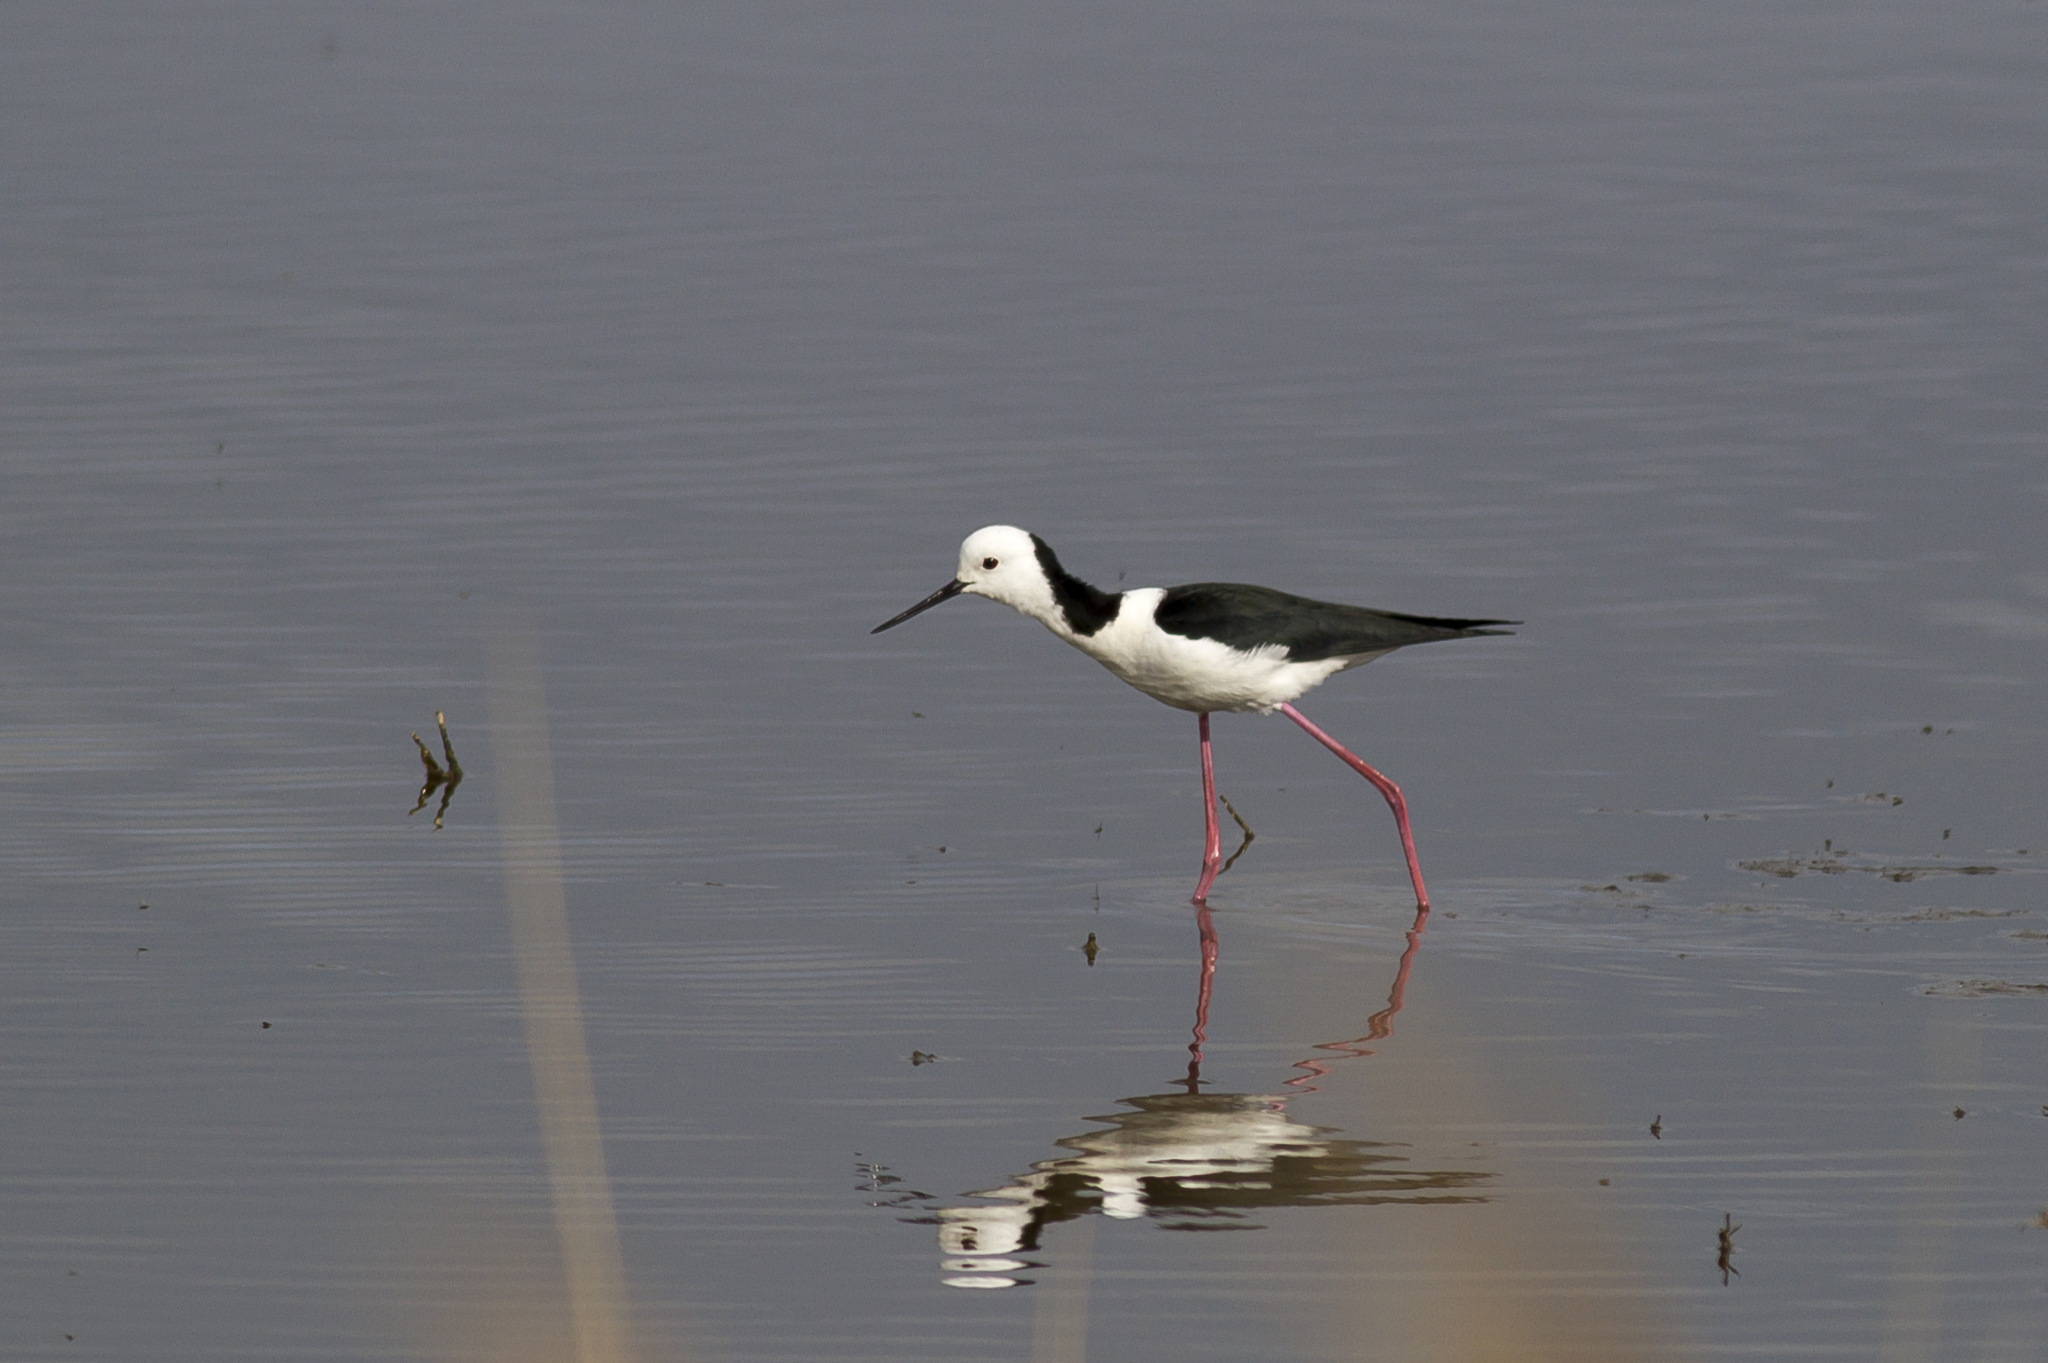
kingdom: Animalia
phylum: Chordata
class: Aves
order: Charadriiformes
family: Recurvirostridae
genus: Himantopus
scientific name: Himantopus leucocephalus
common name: White-headed stilt
